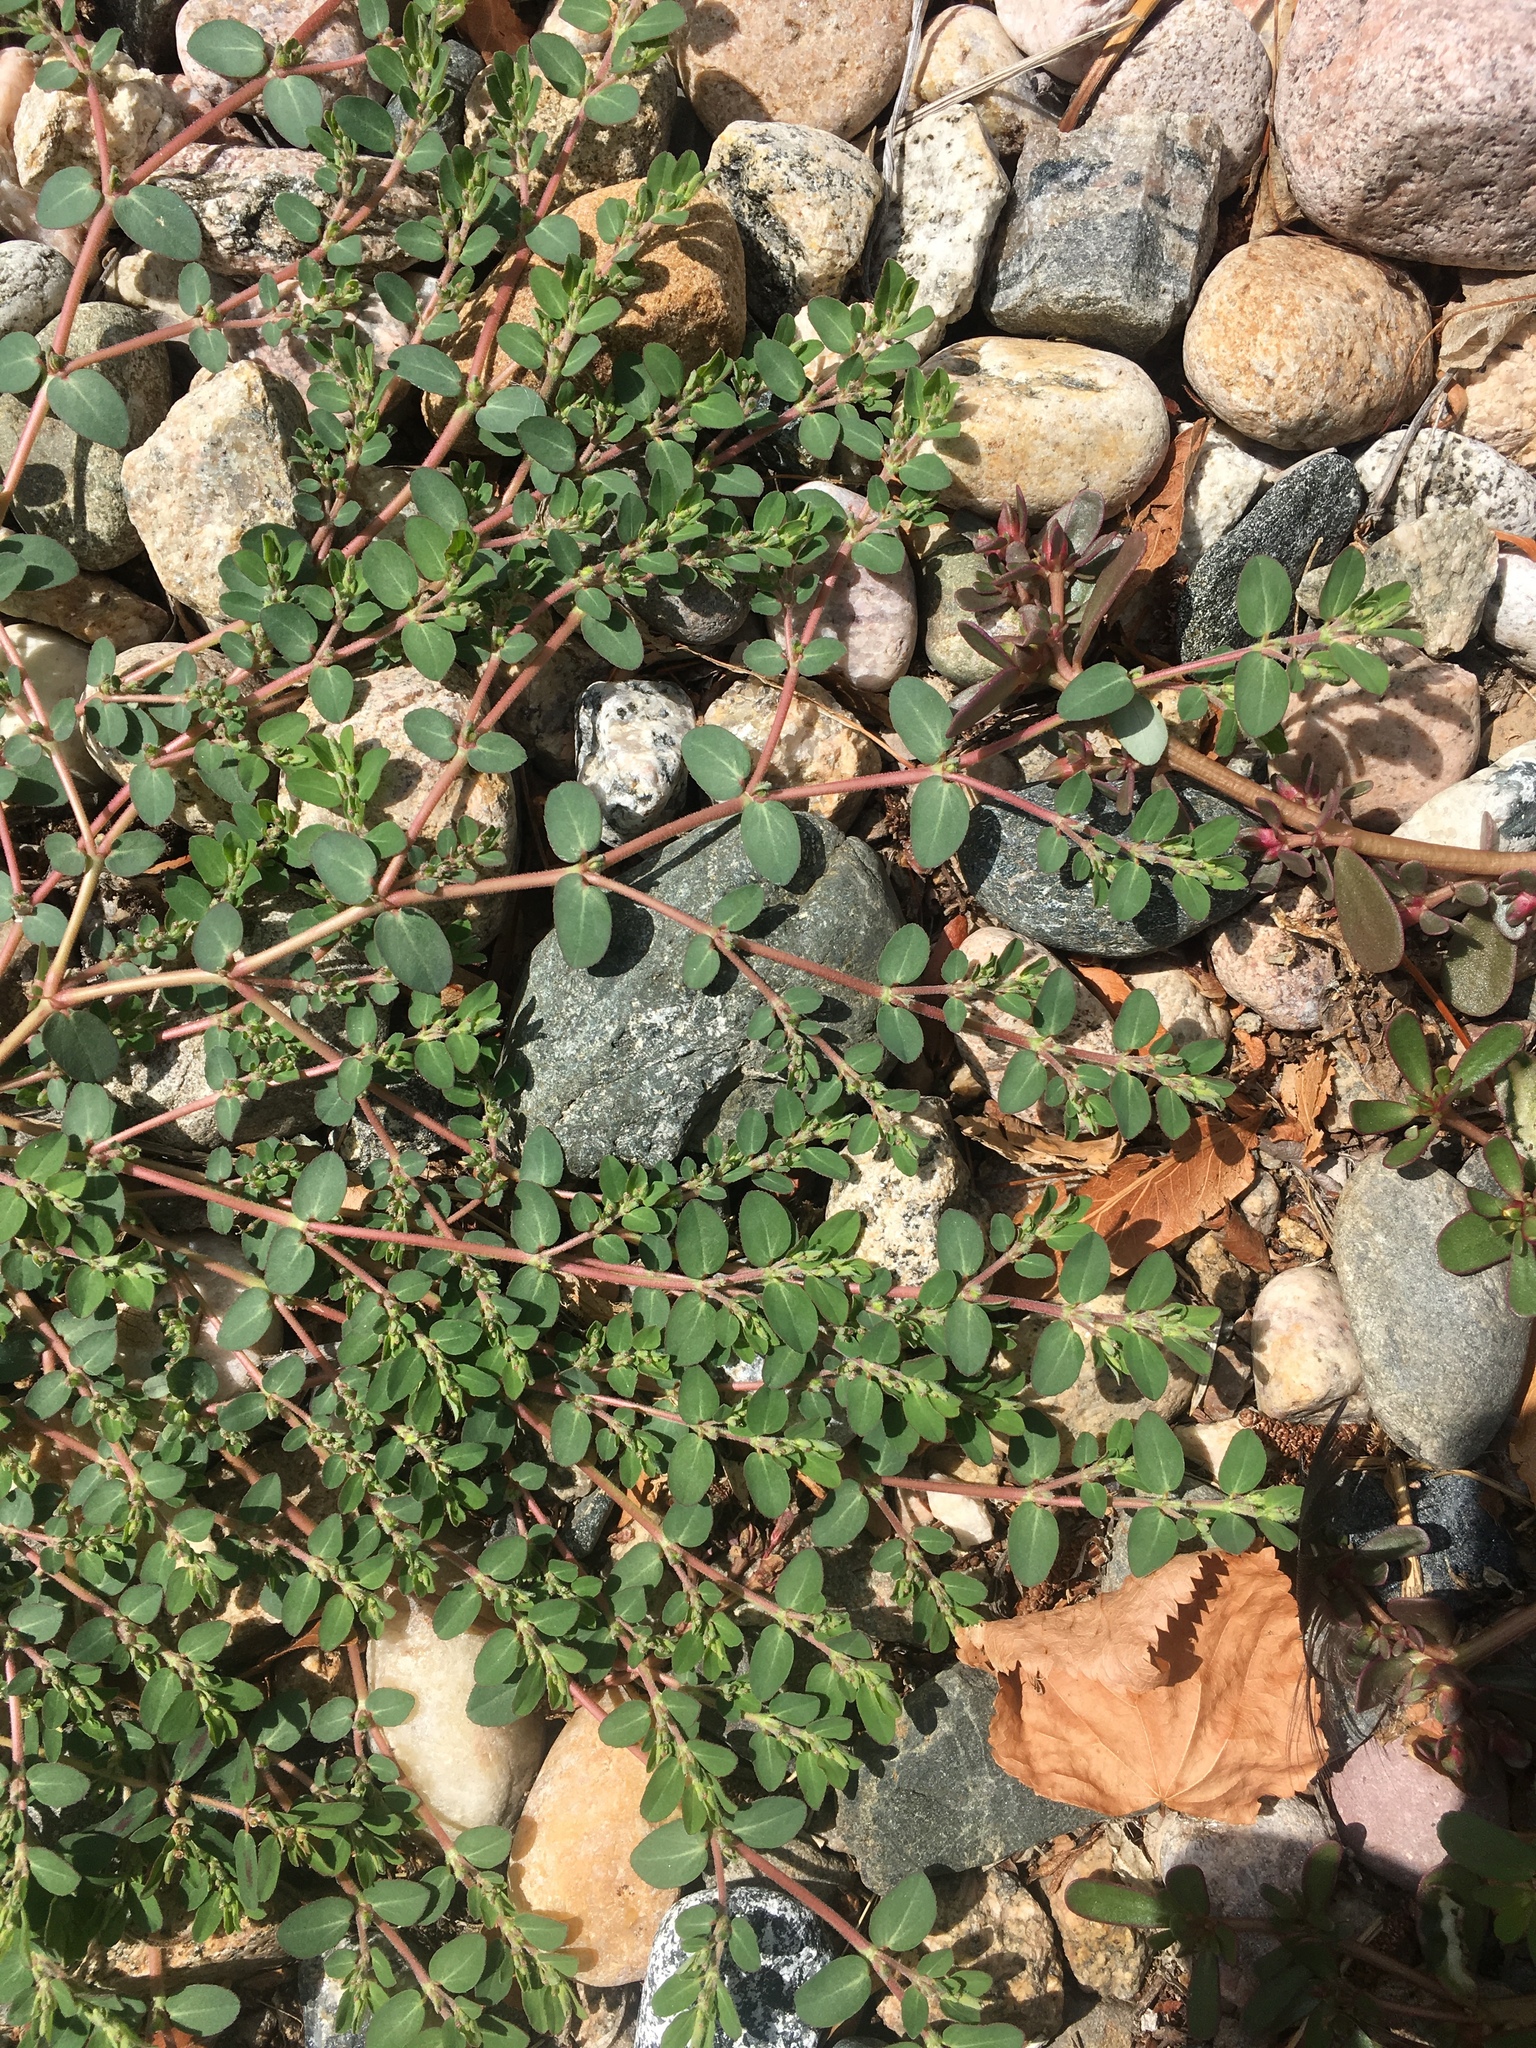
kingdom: Plantae
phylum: Tracheophyta
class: Magnoliopsida
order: Malpighiales
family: Euphorbiaceae
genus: Euphorbia
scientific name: Euphorbia prostrata
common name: Prostrate sandmat
